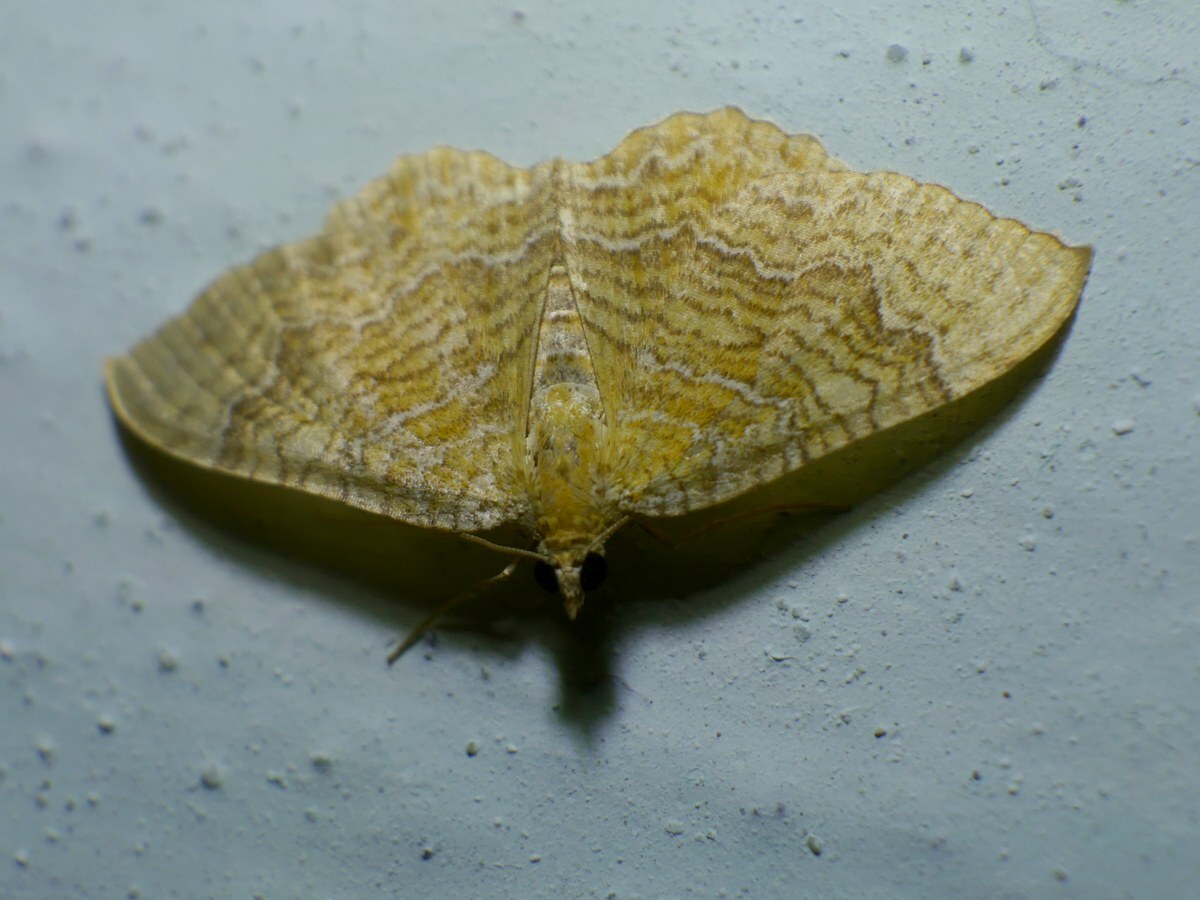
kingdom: Animalia
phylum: Arthropoda
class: Insecta
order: Lepidoptera
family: Geometridae
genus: Camptogramma
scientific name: Camptogramma bilineata
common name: Yellow shell
